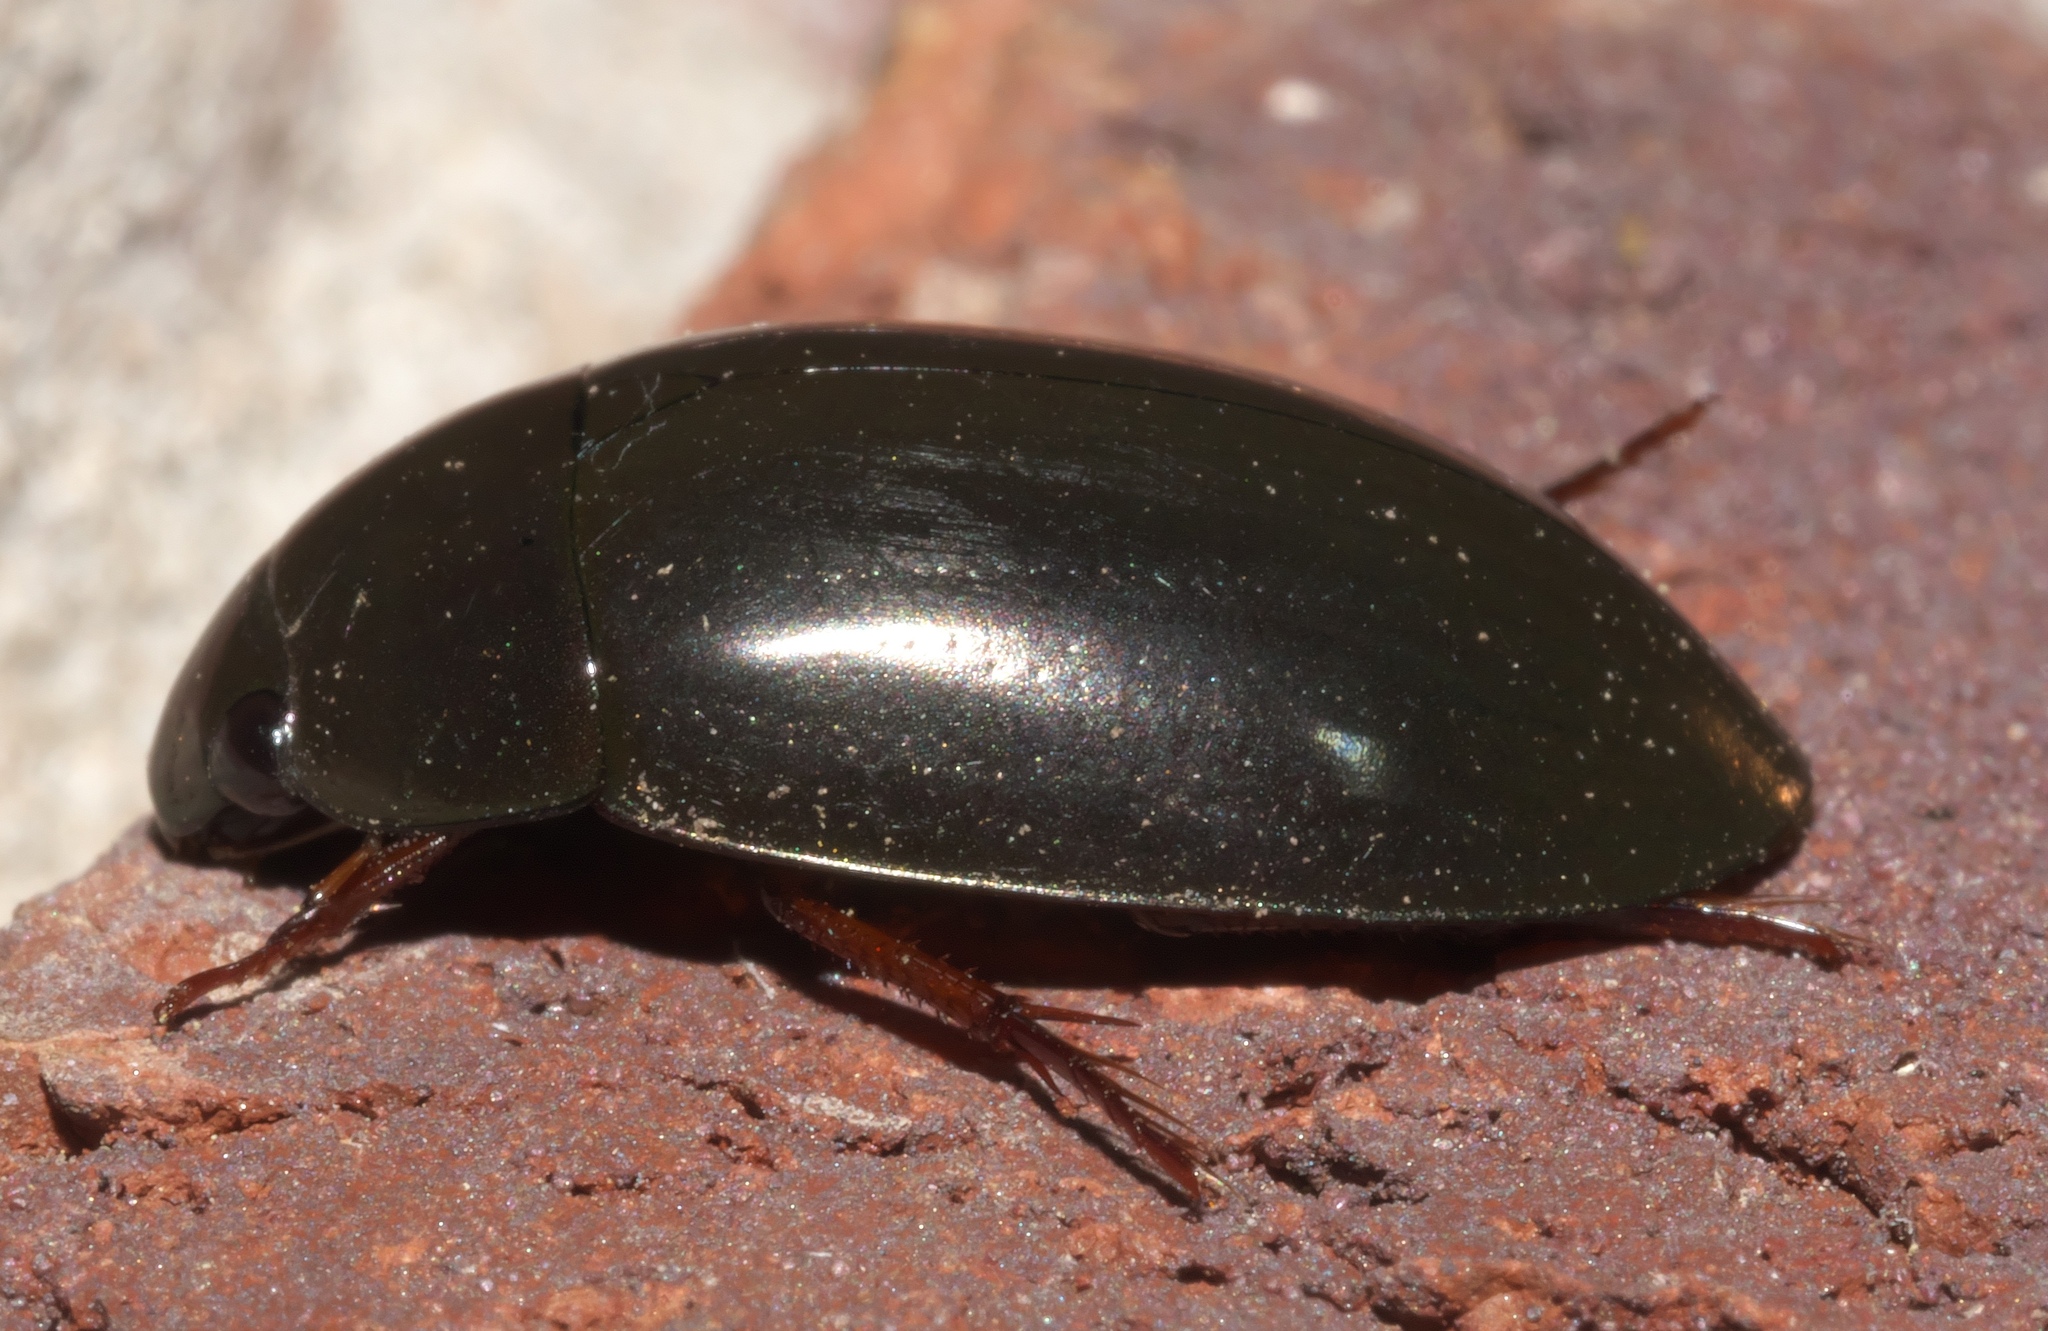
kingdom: Animalia
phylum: Arthropoda
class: Insecta
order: Coleoptera
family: Hydrophilidae
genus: Hydrochara
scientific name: Hydrochara
